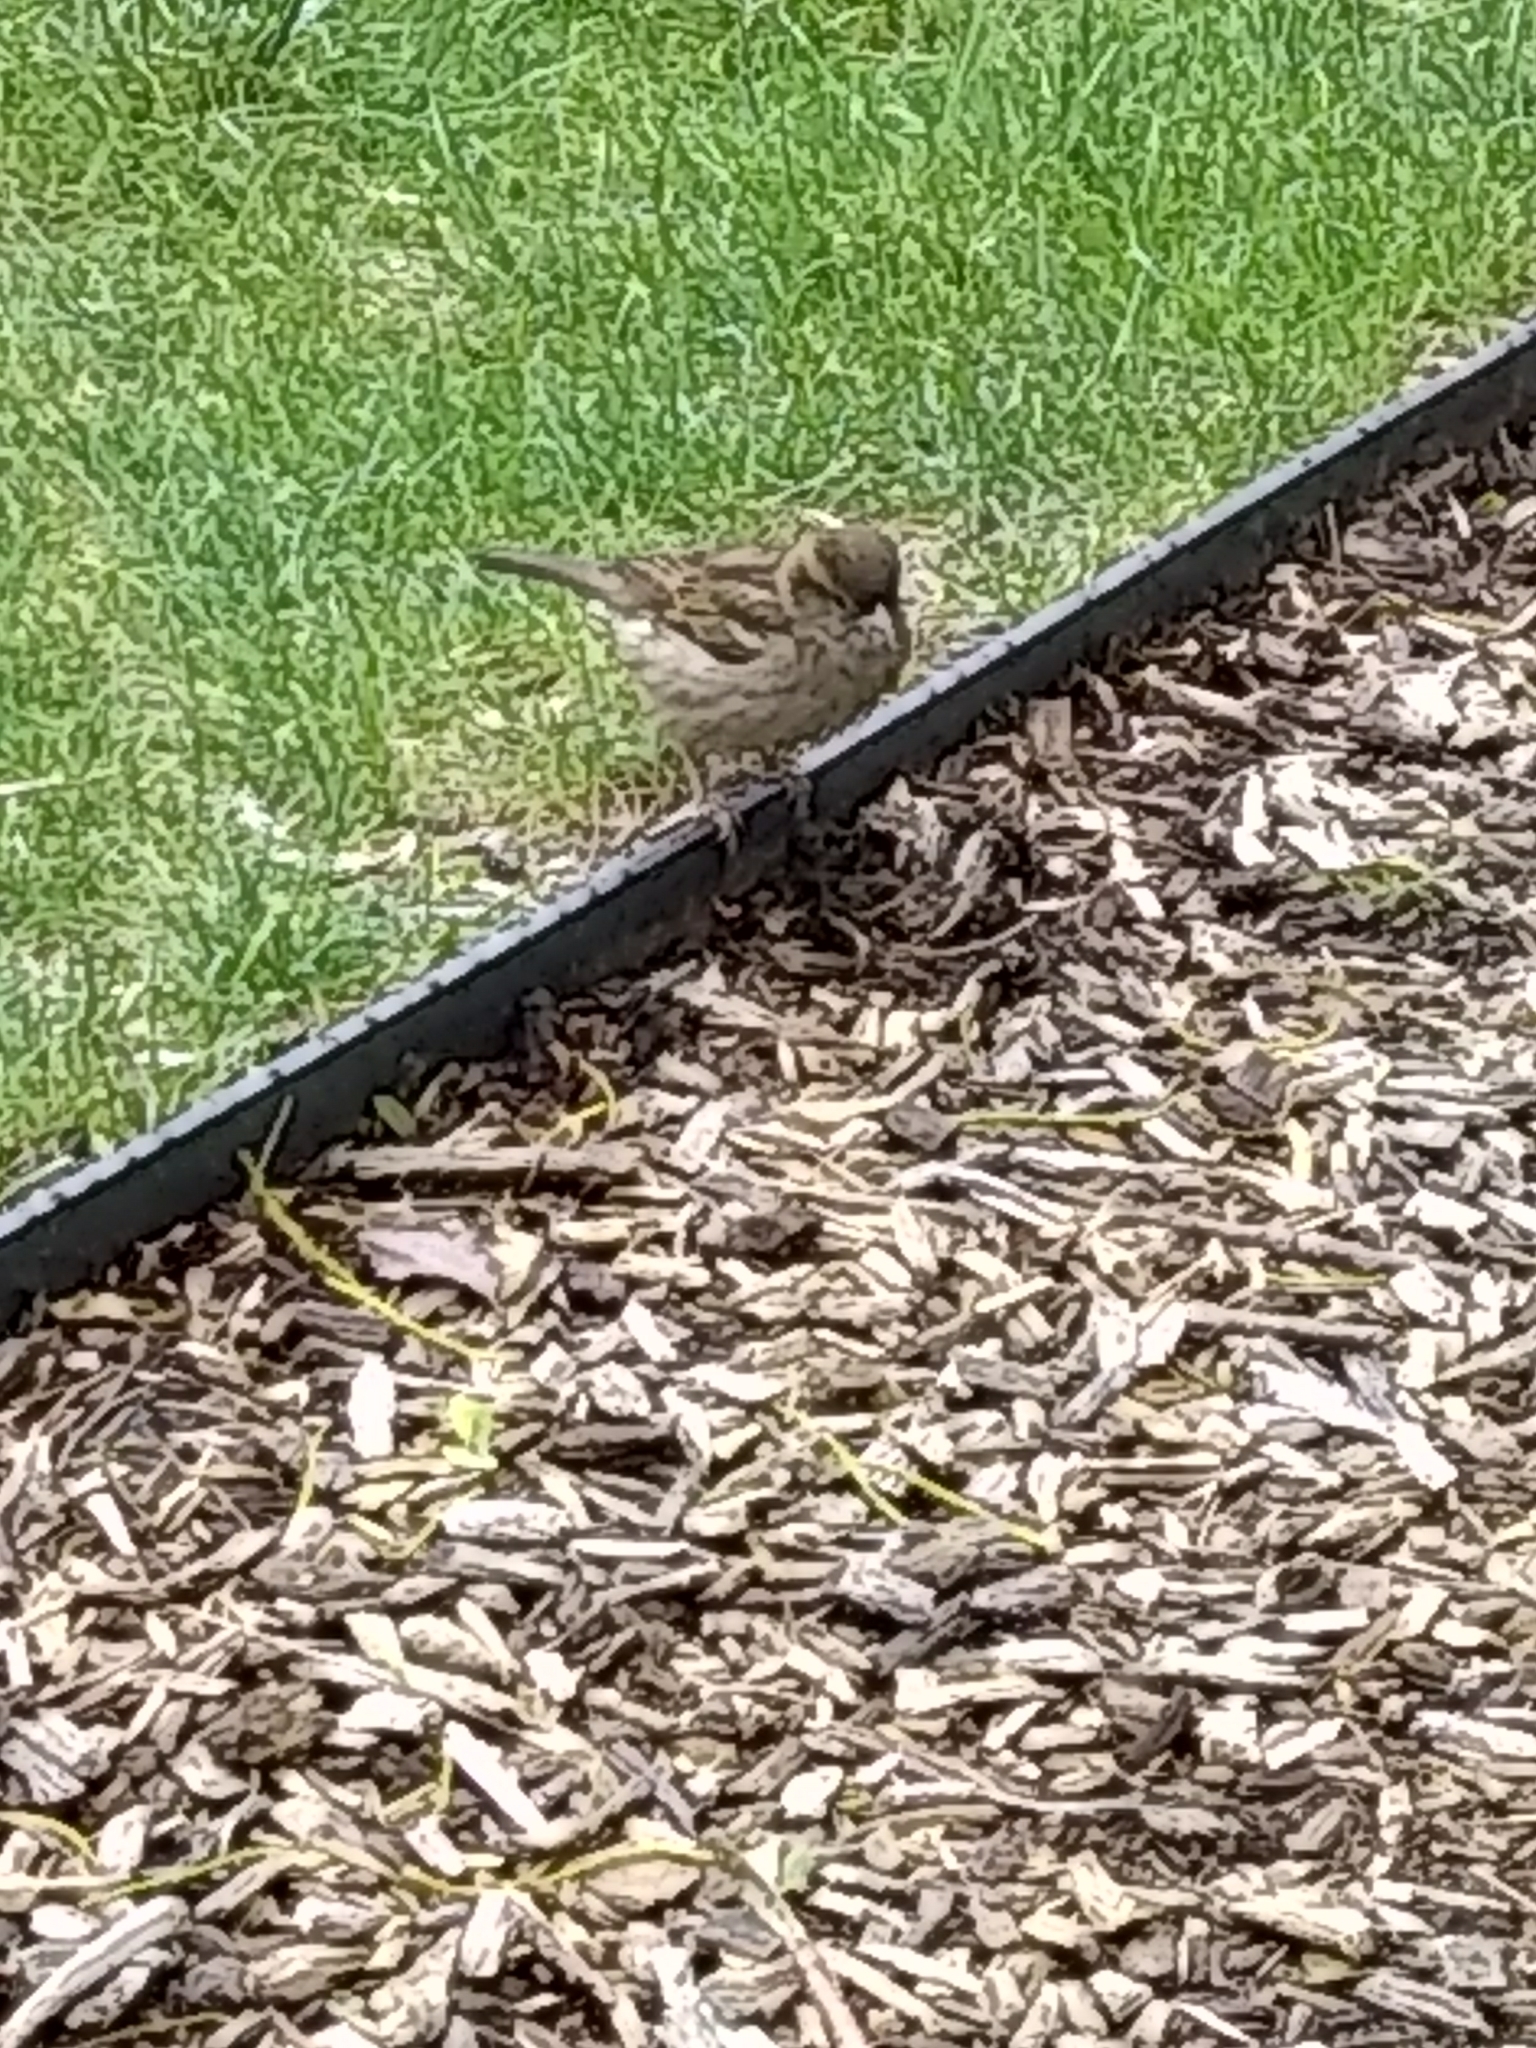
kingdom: Animalia
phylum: Chordata
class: Aves
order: Passeriformes
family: Passeridae
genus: Passer
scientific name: Passer domesticus
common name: House sparrow
